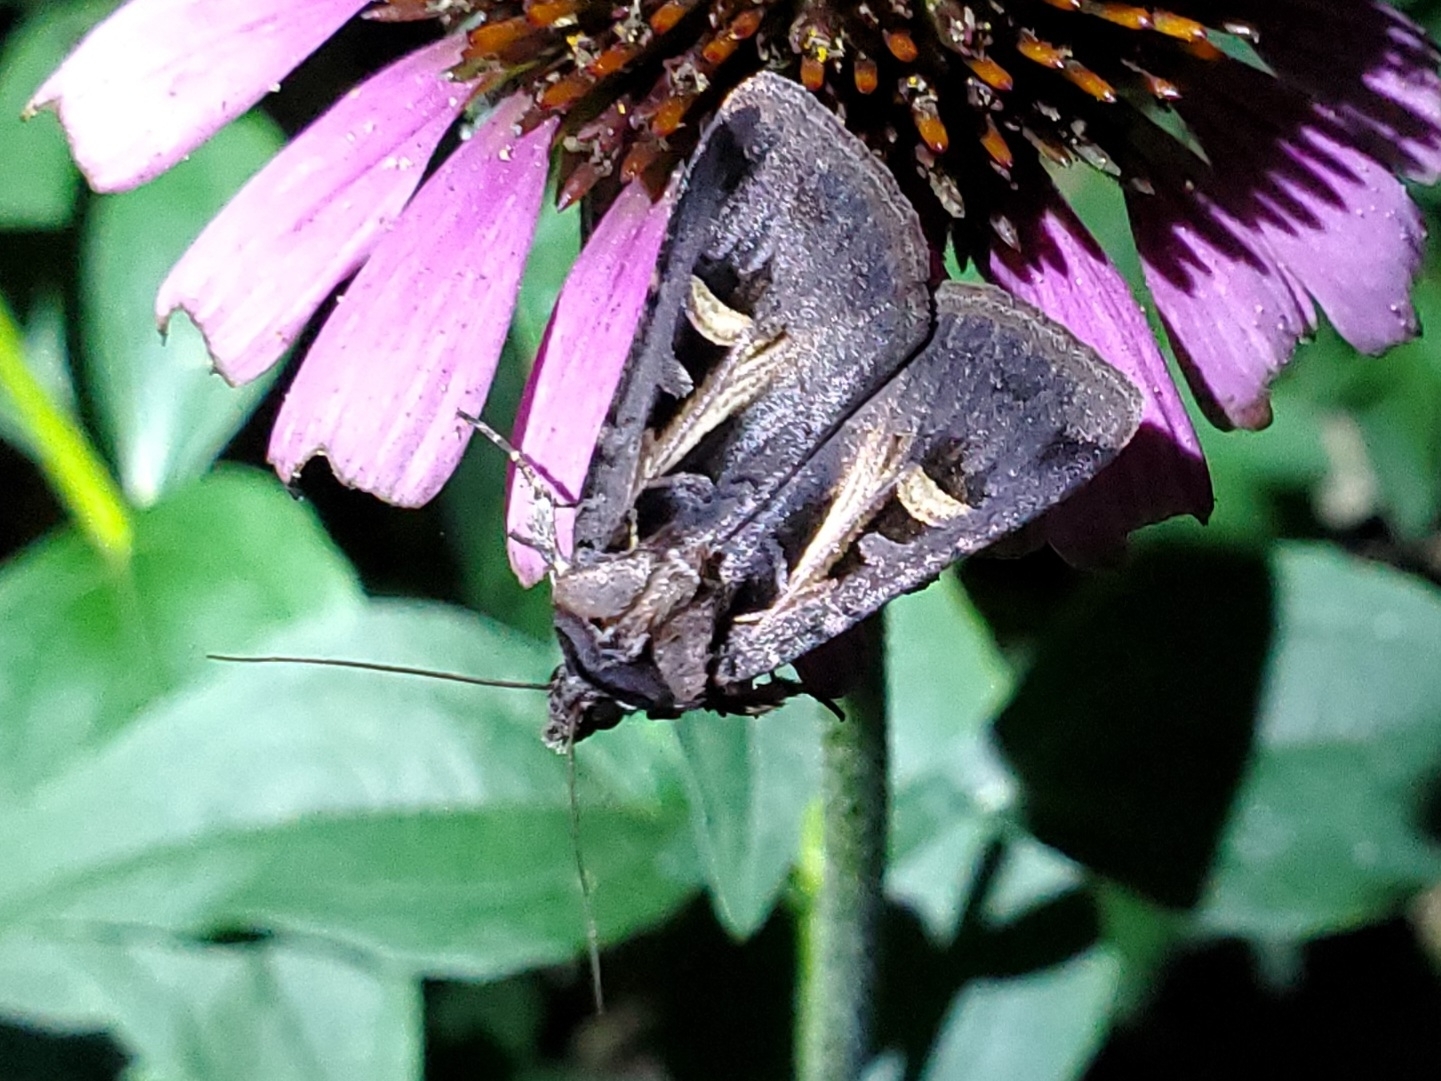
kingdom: Animalia
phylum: Arthropoda
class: Insecta
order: Lepidoptera
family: Noctuidae
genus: Feltia
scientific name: Feltia herilis
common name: Master's dart
